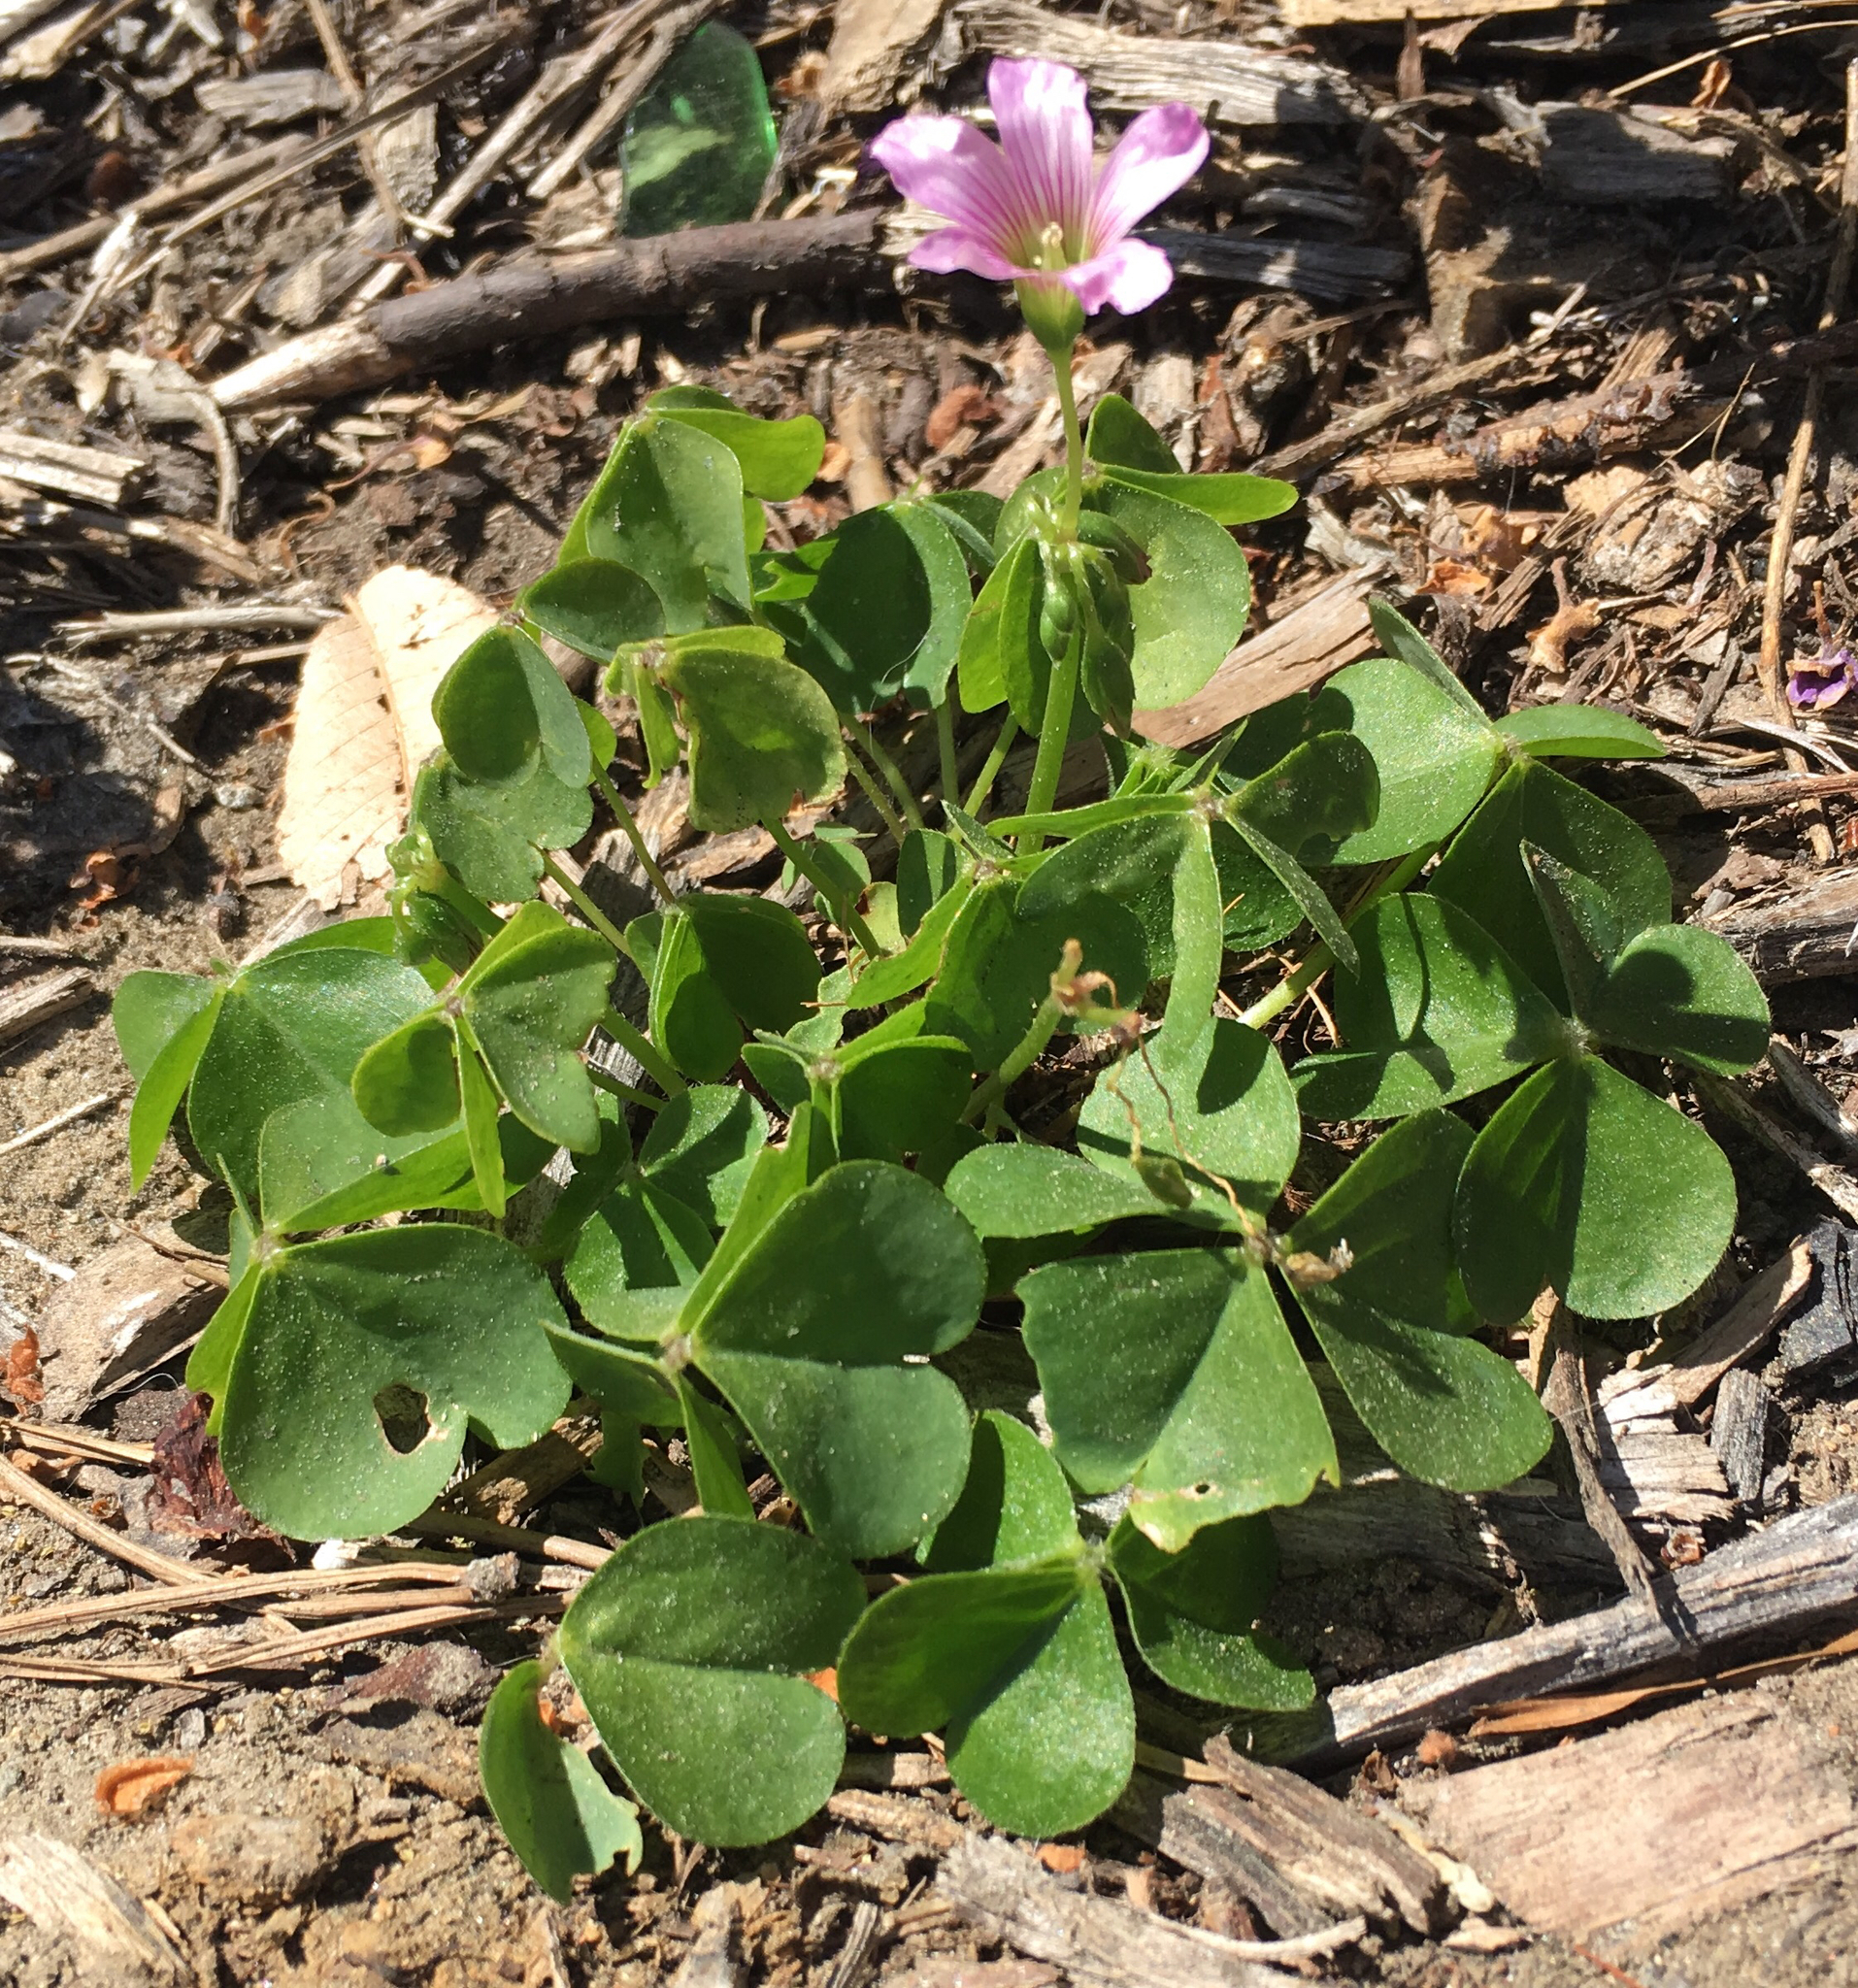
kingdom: Plantae
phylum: Tracheophyta
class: Magnoliopsida
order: Oxalidales
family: Oxalidaceae
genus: Oxalis
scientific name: Oxalis debilis
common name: Large-flowered pink-sorrel
